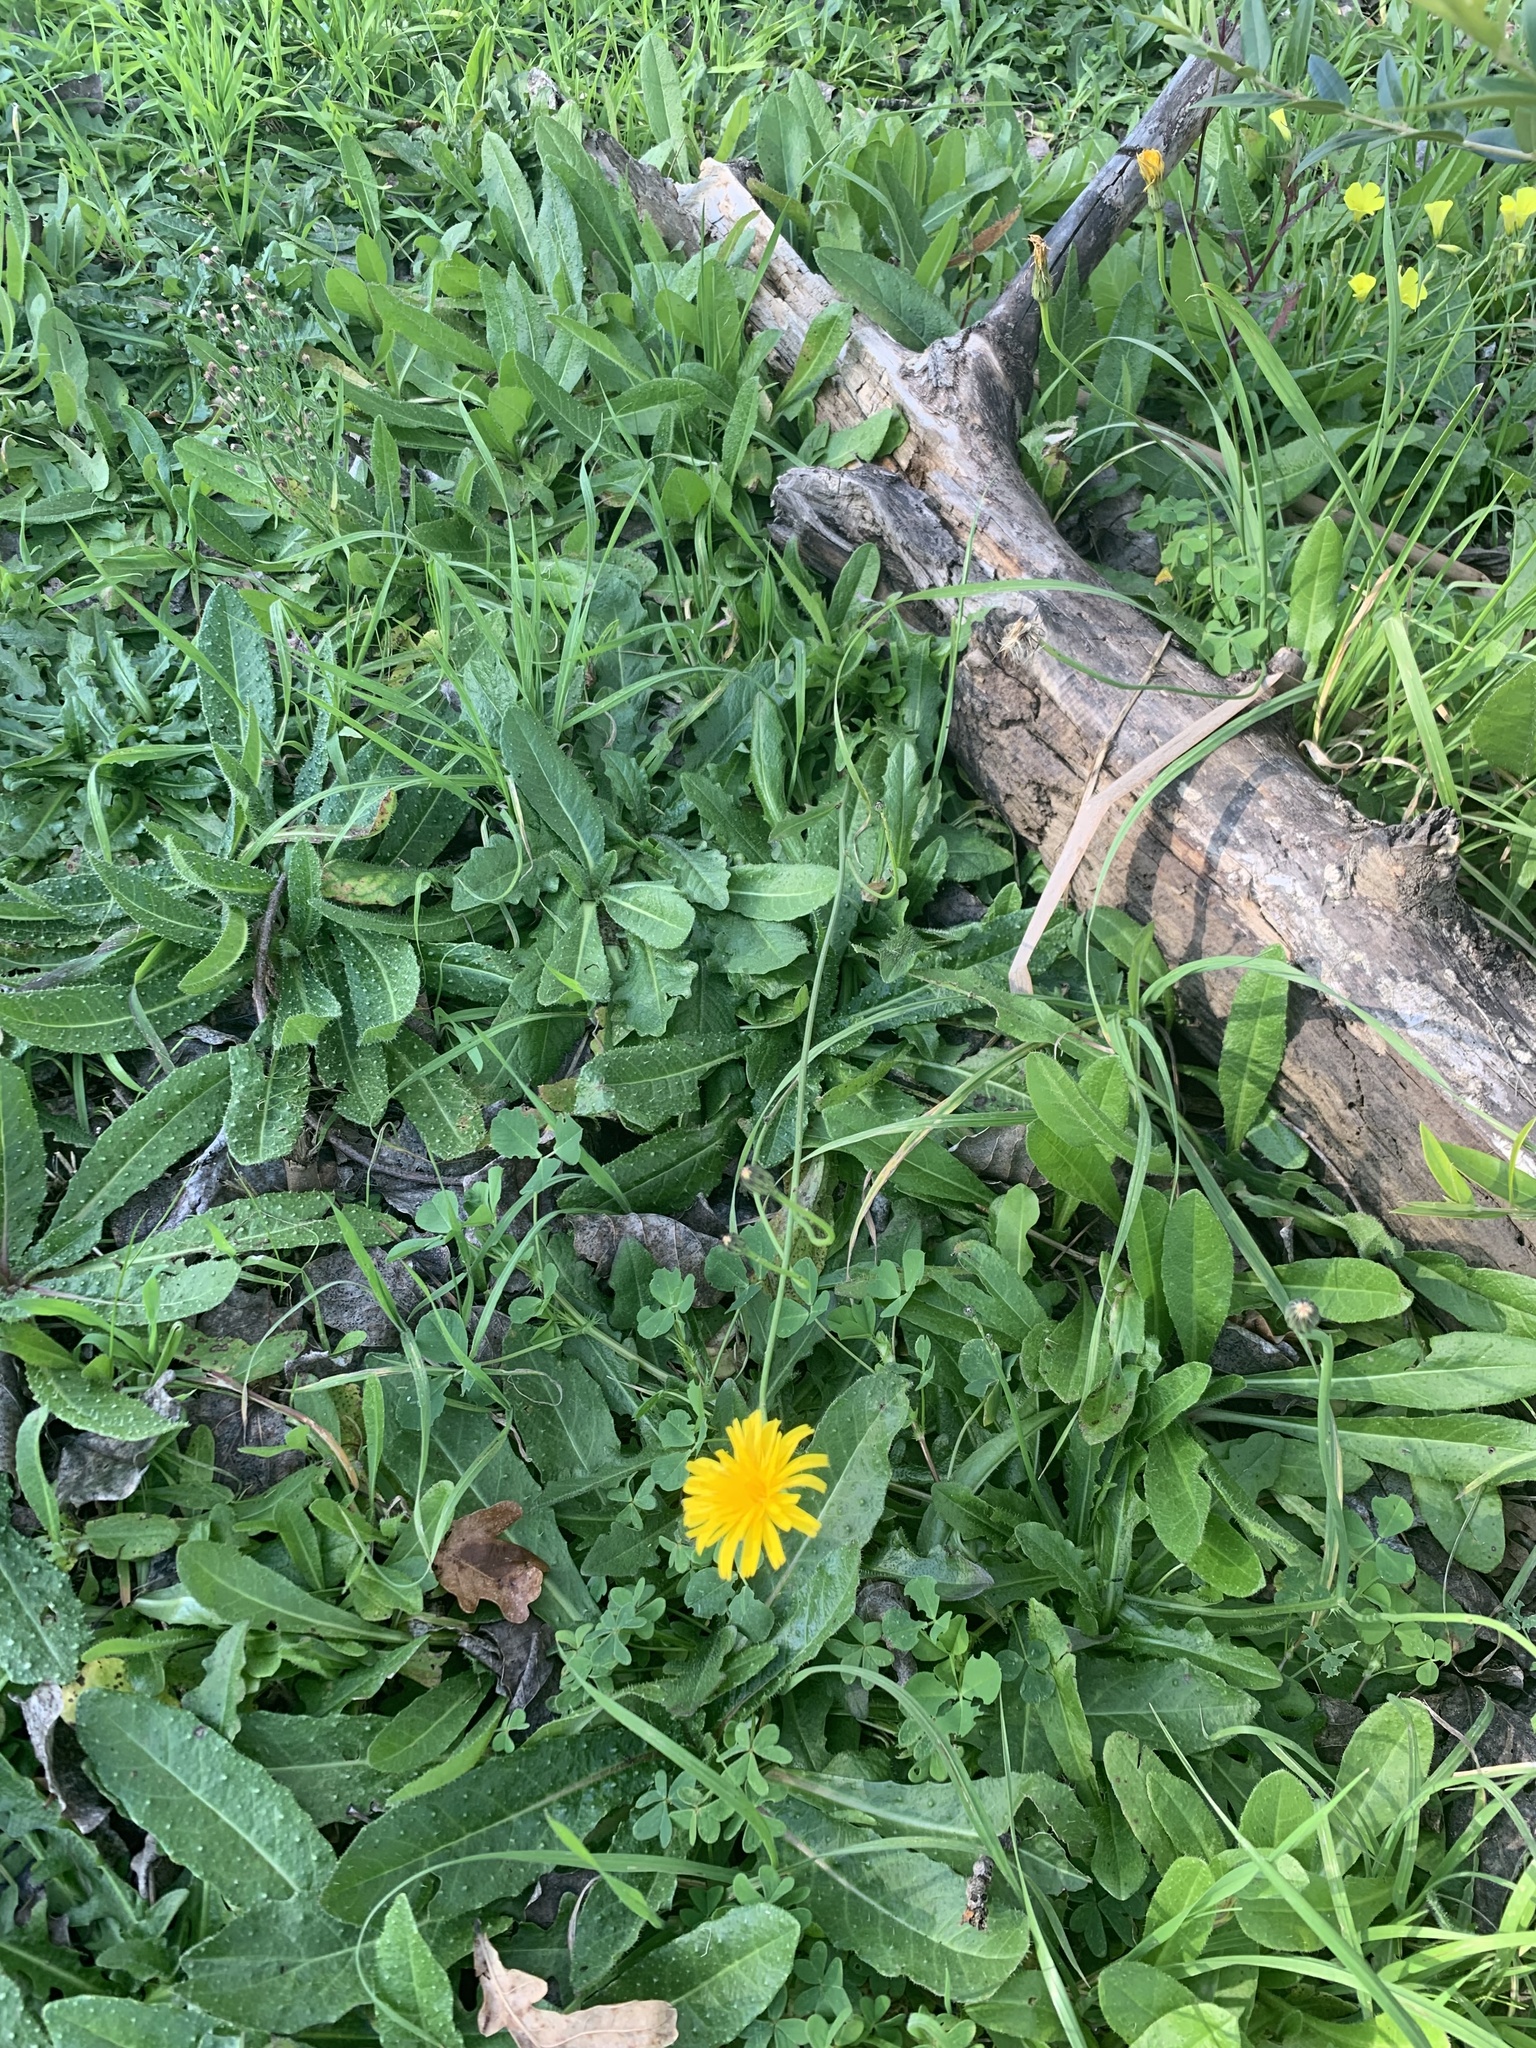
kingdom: Plantae
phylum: Tracheophyta
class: Magnoliopsida
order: Asterales
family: Asteraceae
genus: Hypochaeris
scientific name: Hypochaeris radicata
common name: Flatweed
